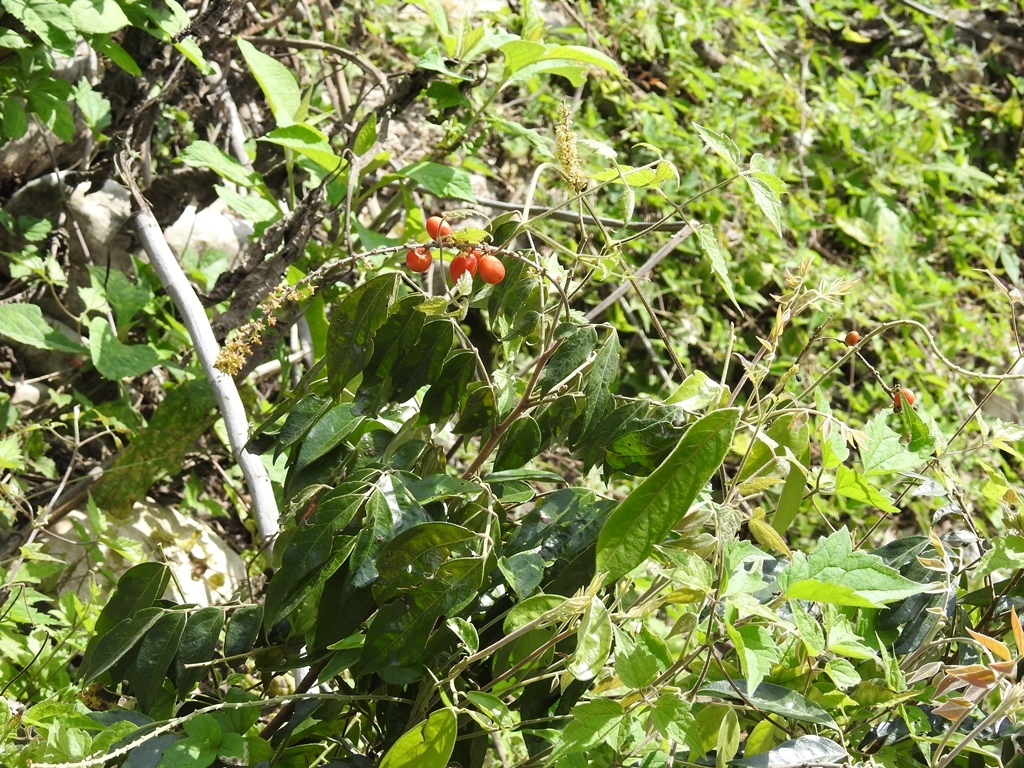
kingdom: Plantae
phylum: Tracheophyta
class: Magnoliopsida
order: Picramniales
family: Picramniaceae
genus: Picramnia
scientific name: Picramnia deflexa
